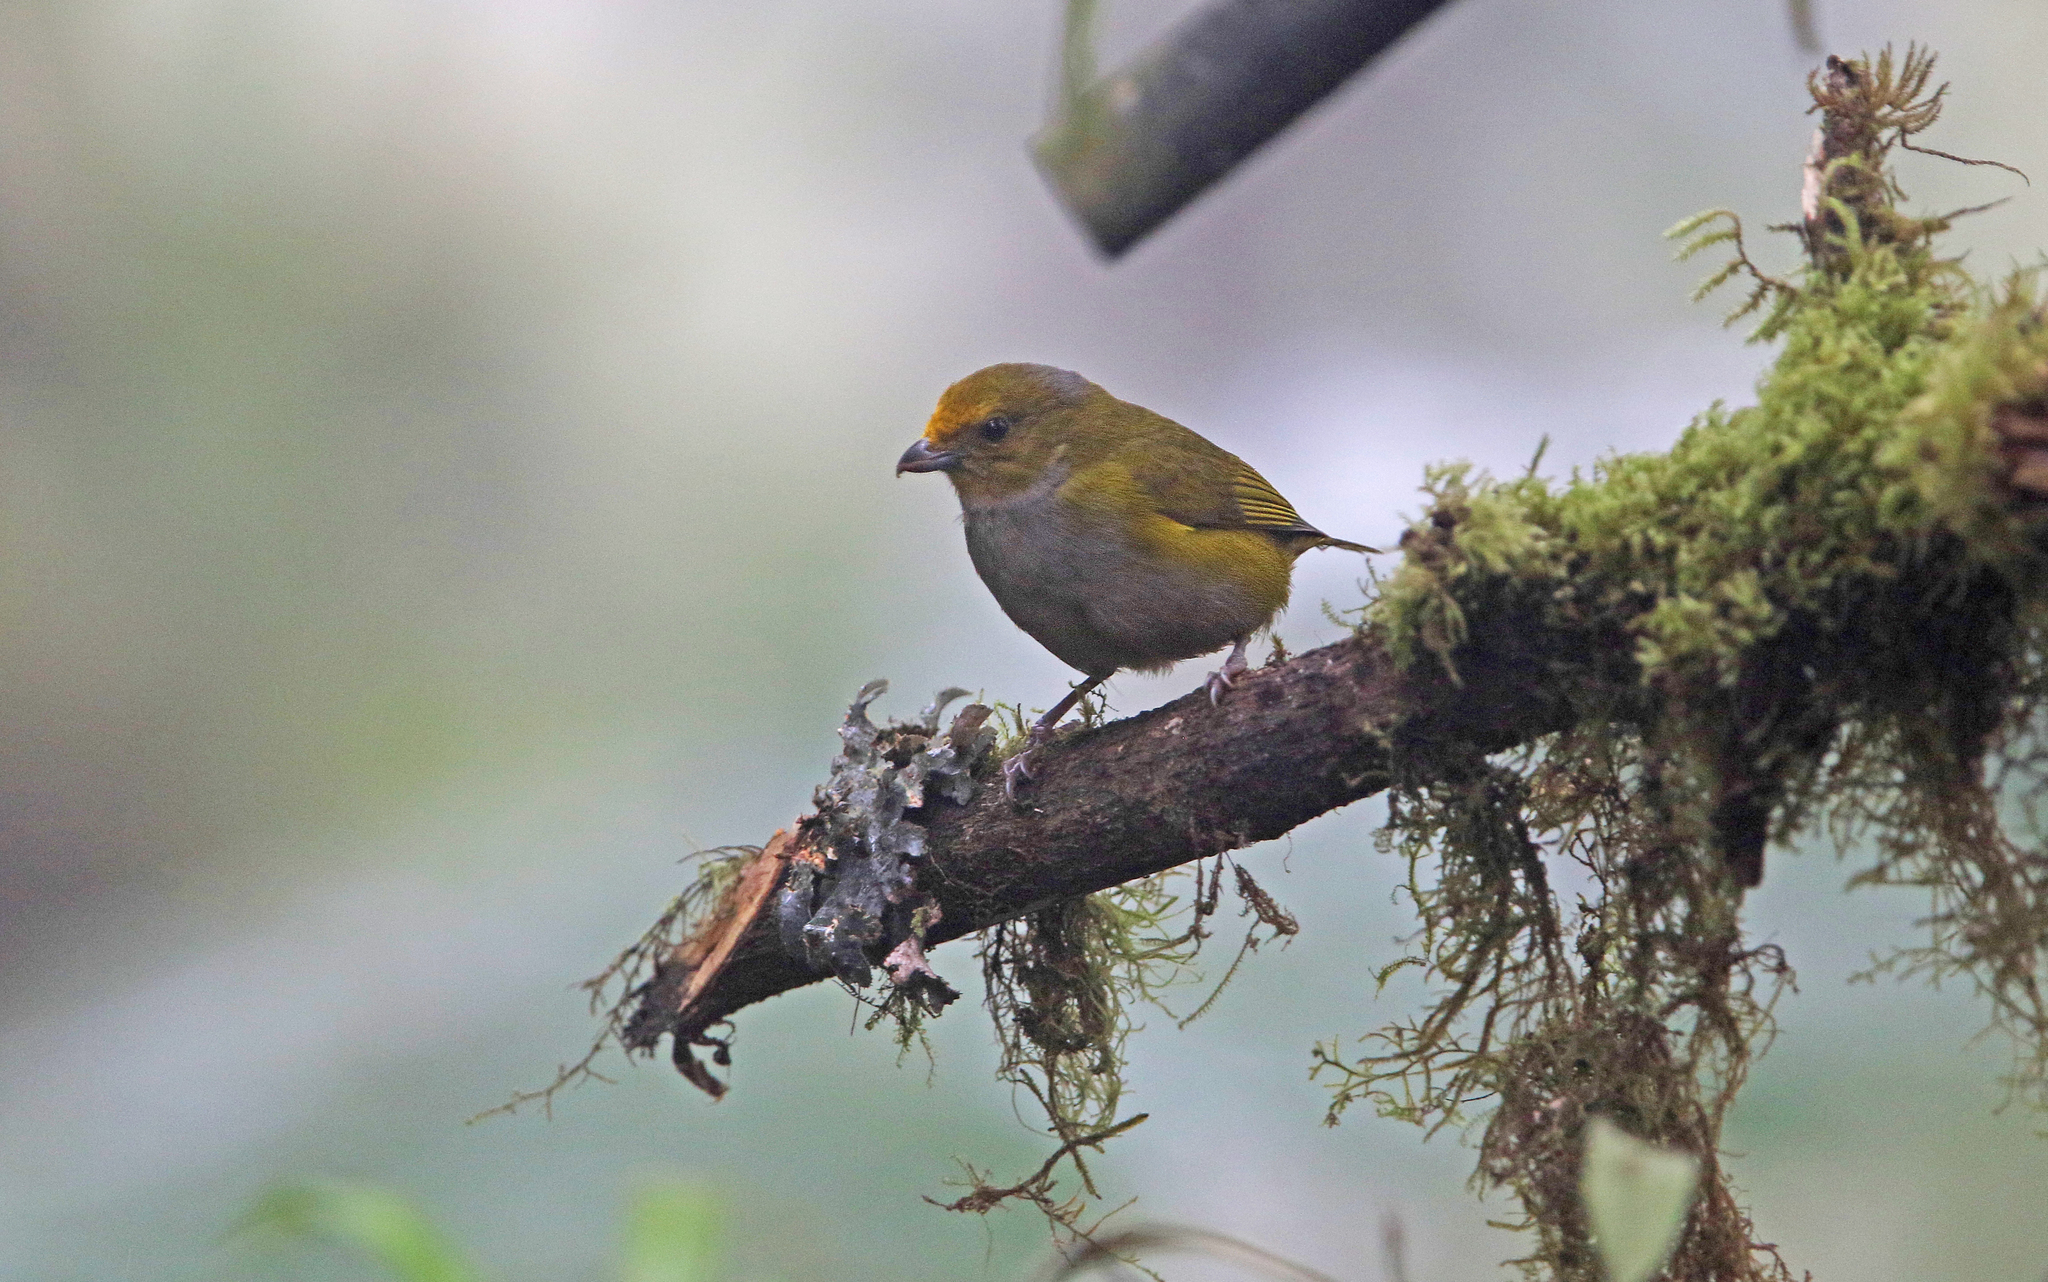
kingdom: Animalia
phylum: Chordata
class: Aves
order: Passeriformes
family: Fringillidae
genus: Euphonia
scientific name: Euphonia xanthogaster
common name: Orange-bellied euphonia
